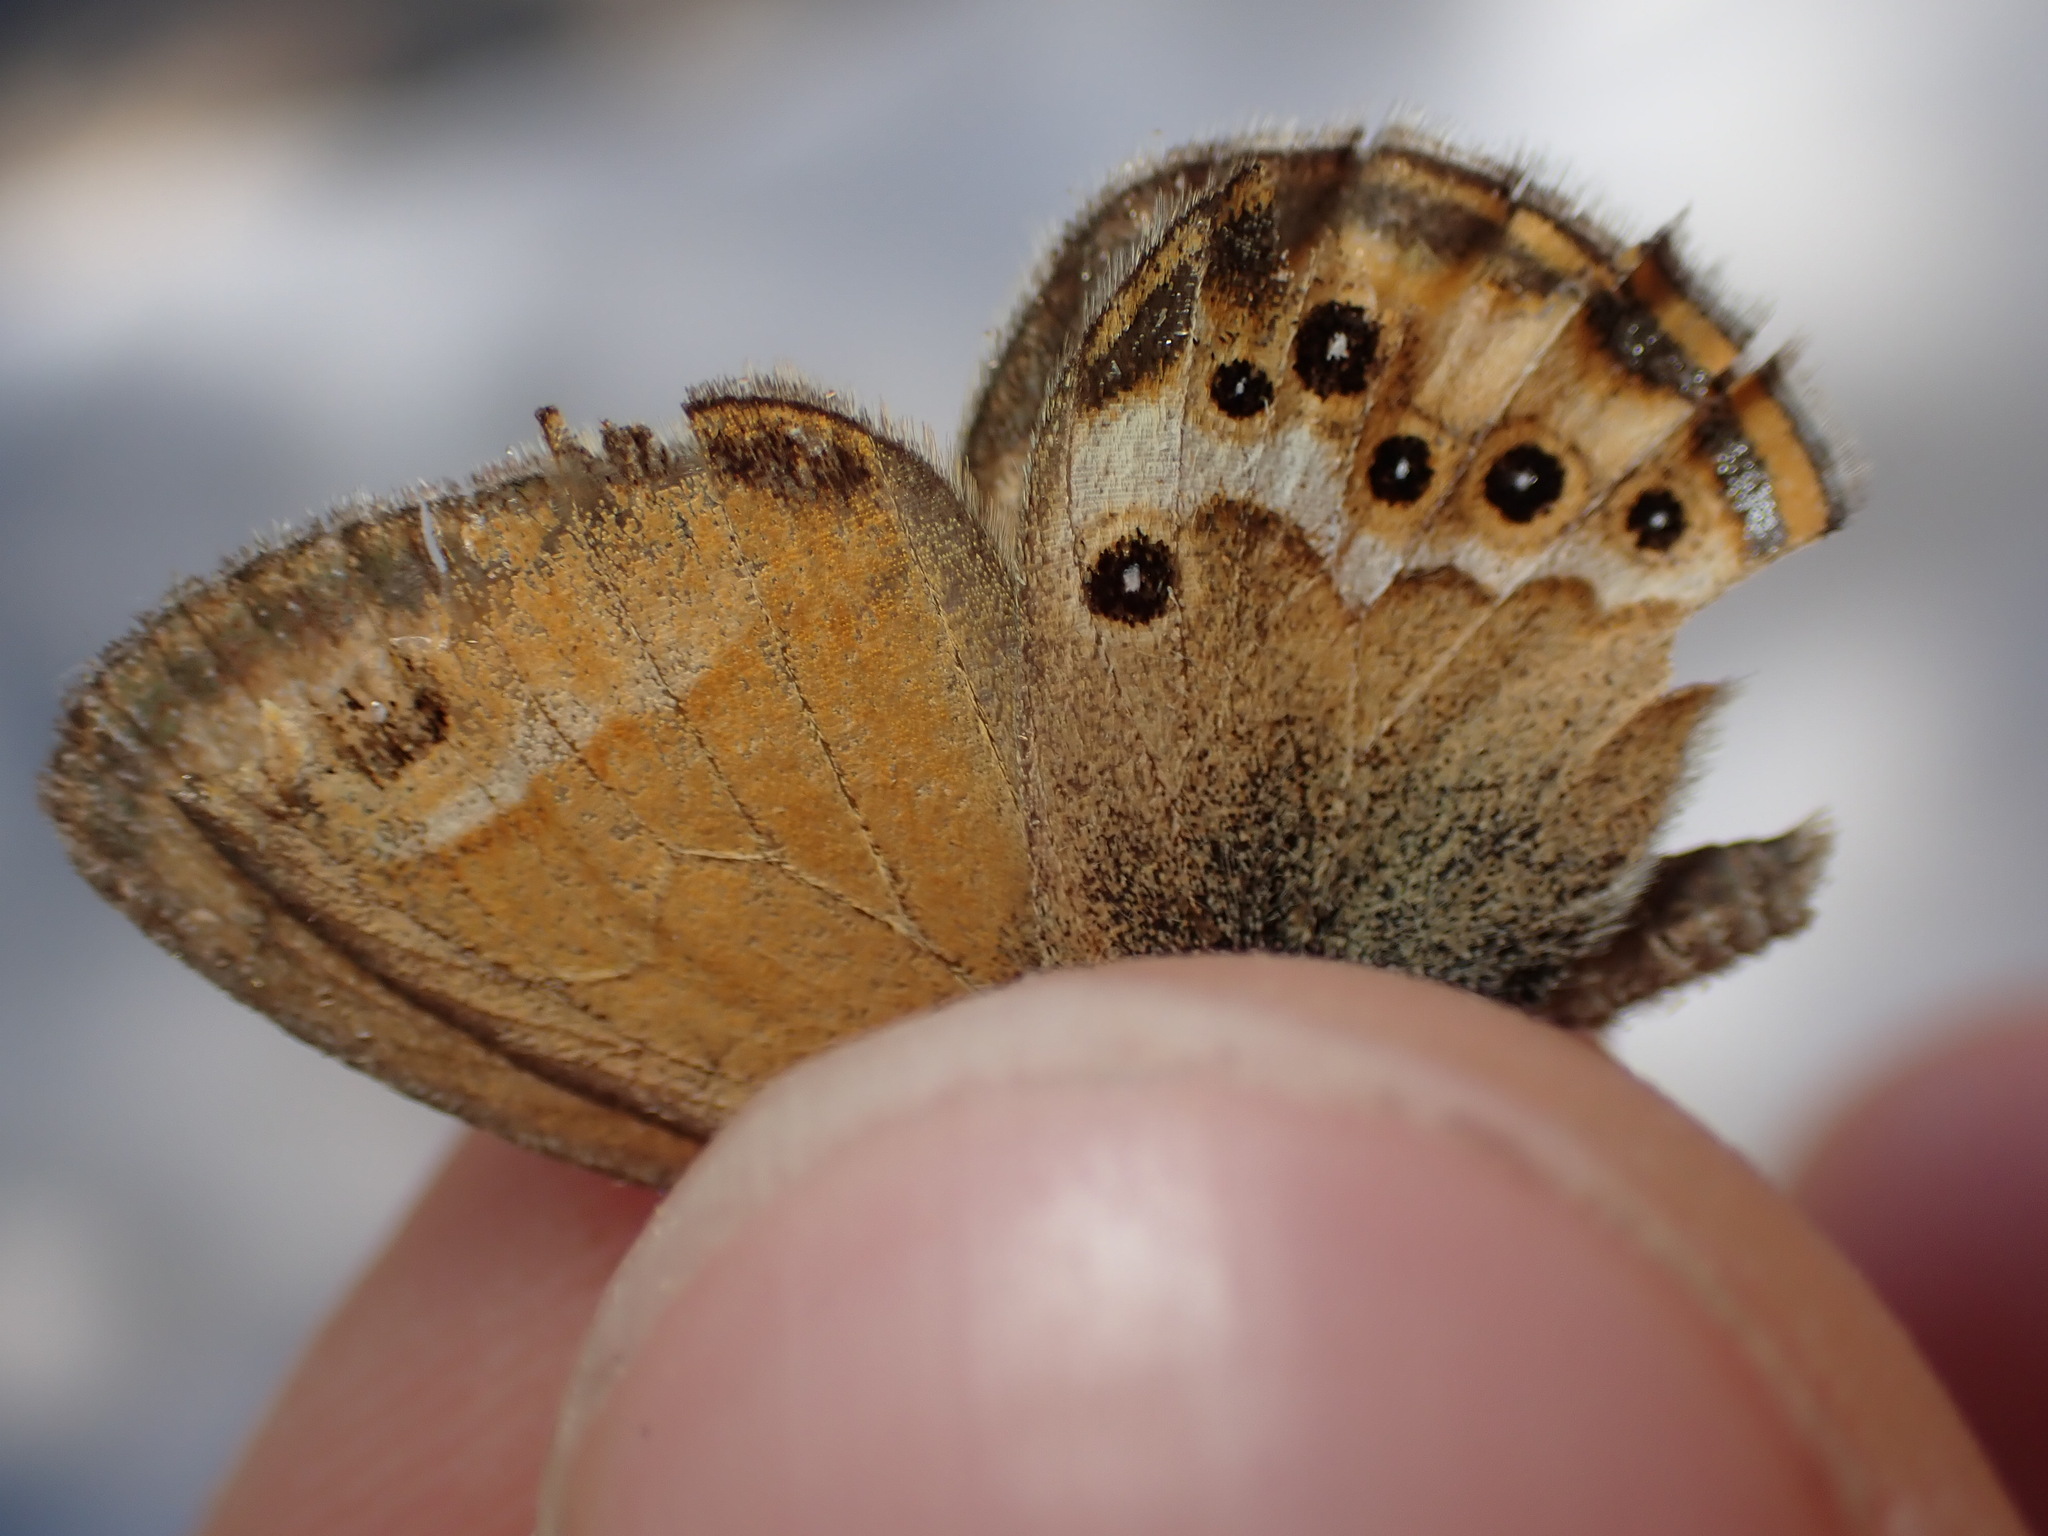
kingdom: Animalia
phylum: Arthropoda
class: Insecta
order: Lepidoptera
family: Nymphalidae
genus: Coenonympha
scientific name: Coenonympha dorus
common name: Dusky heath
